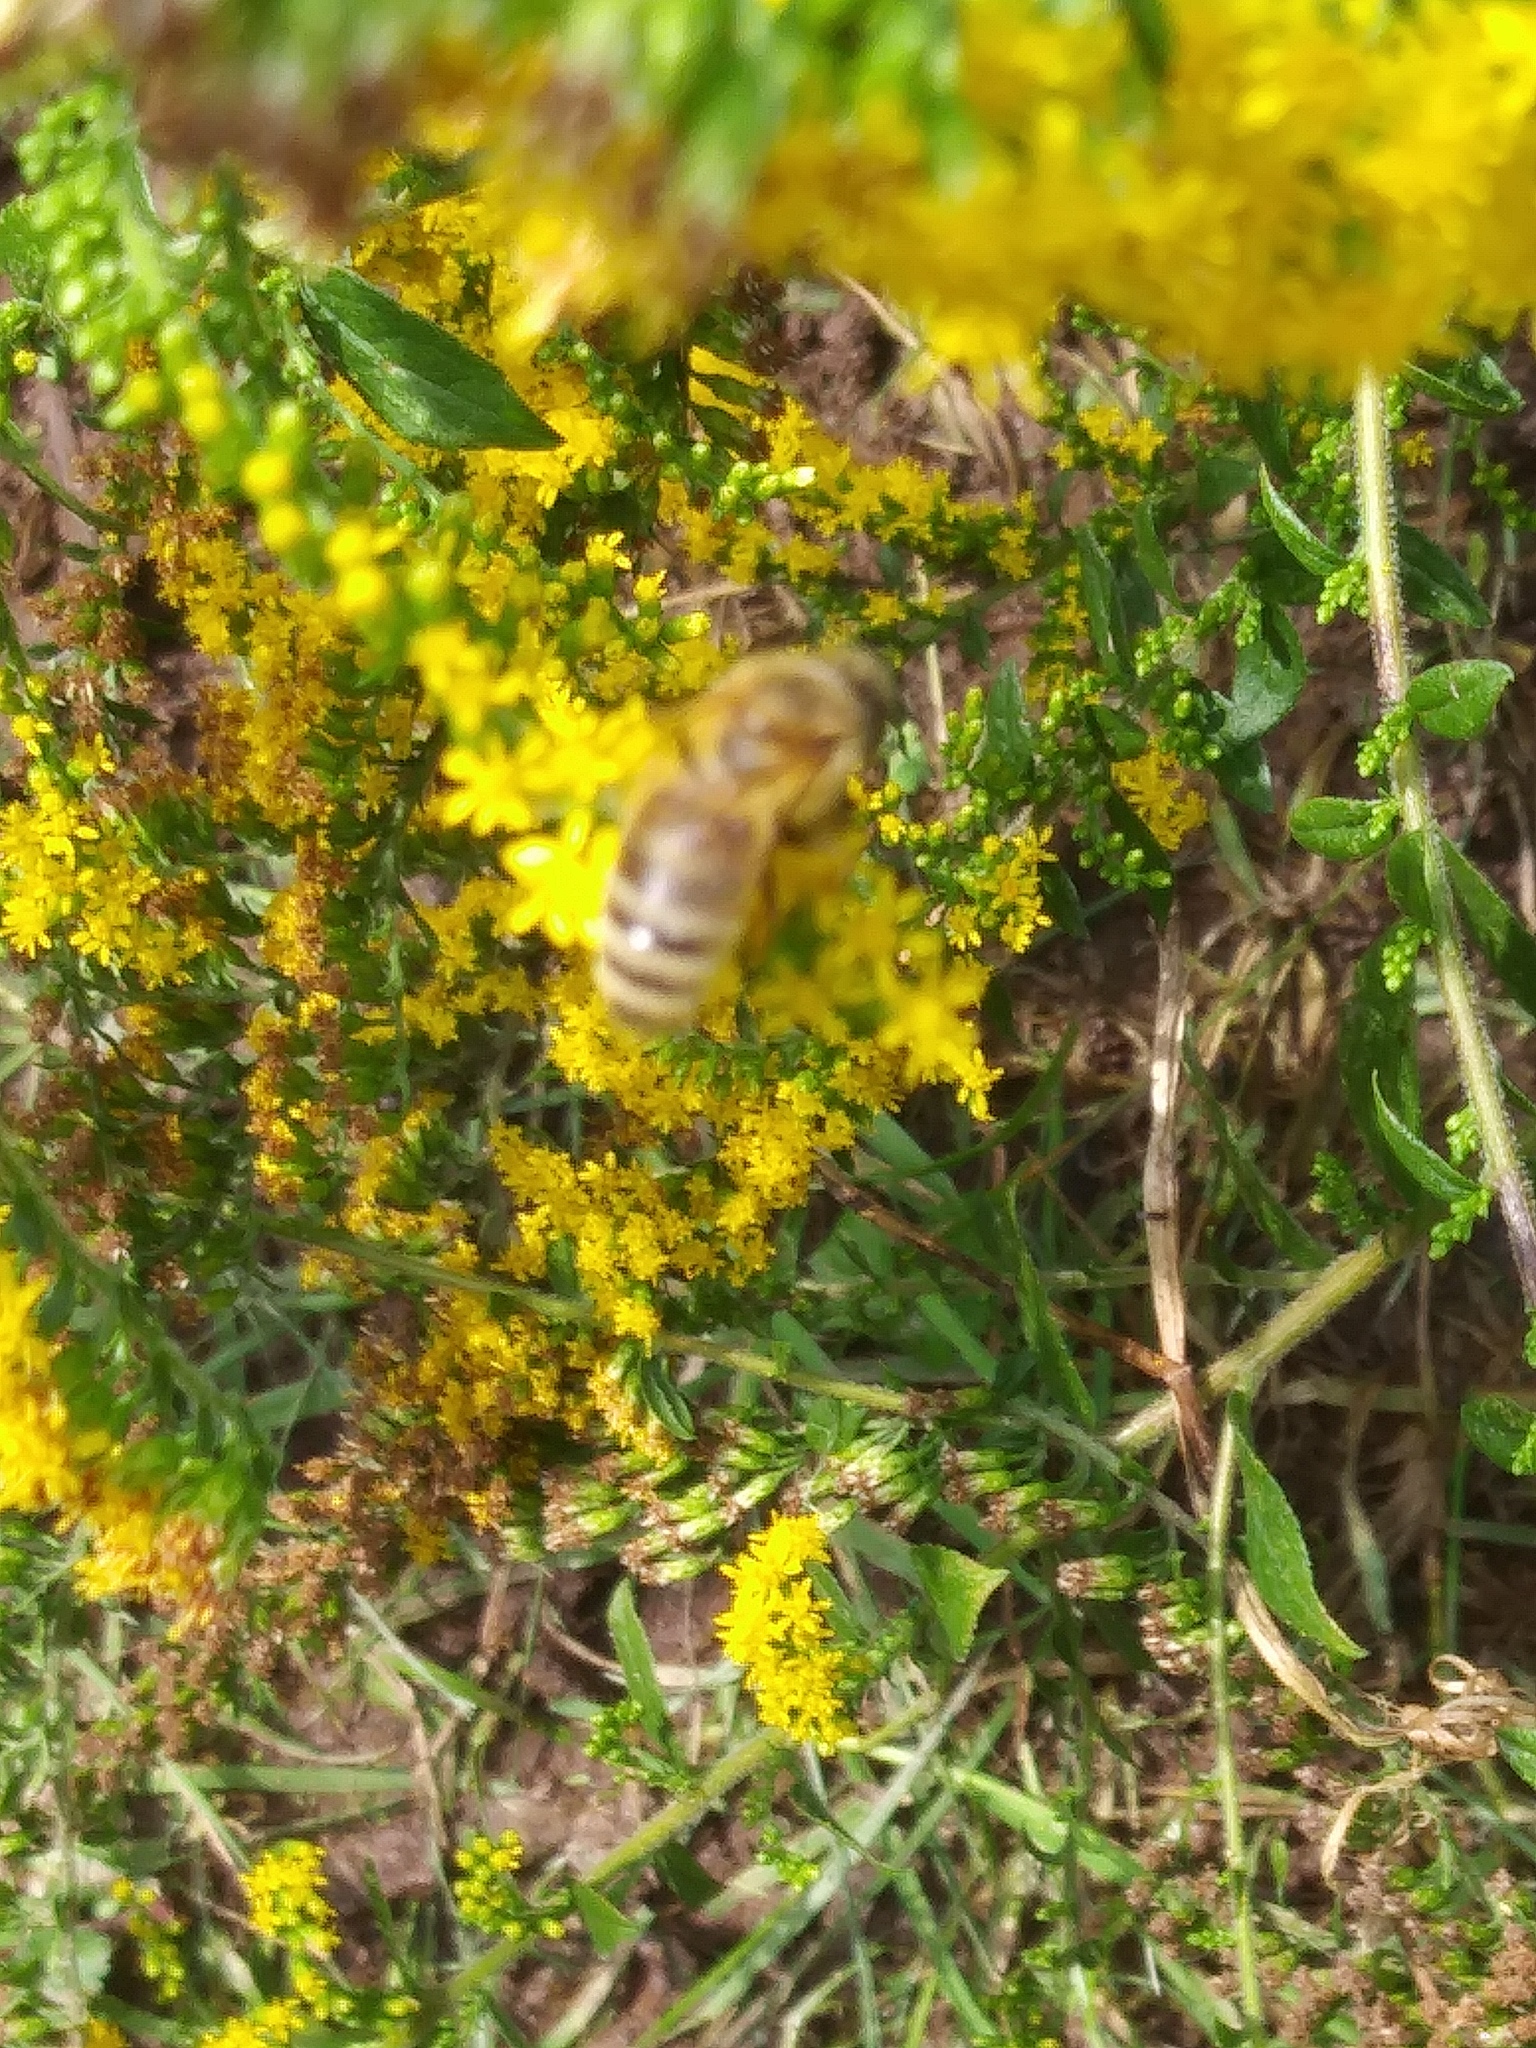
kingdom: Animalia
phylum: Arthropoda
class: Insecta
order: Hymenoptera
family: Apidae
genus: Apis
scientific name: Apis mellifera
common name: Honey bee
